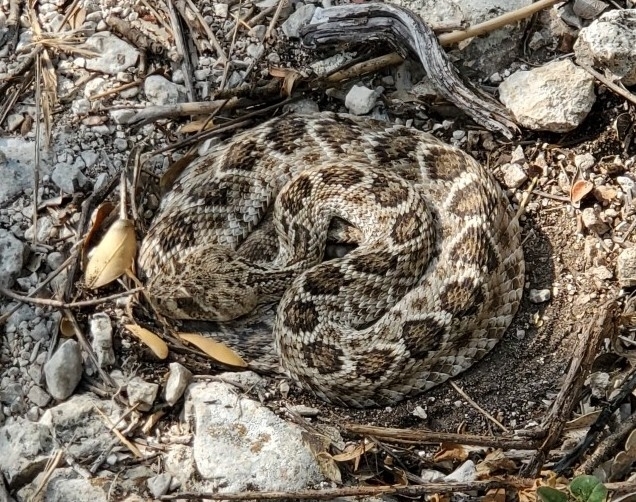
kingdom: Animalia
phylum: Chordata
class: Squamata
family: Viperidae
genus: Crotalus
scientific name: Crotalus atrox
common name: Western diamond-backed rattlesnake
